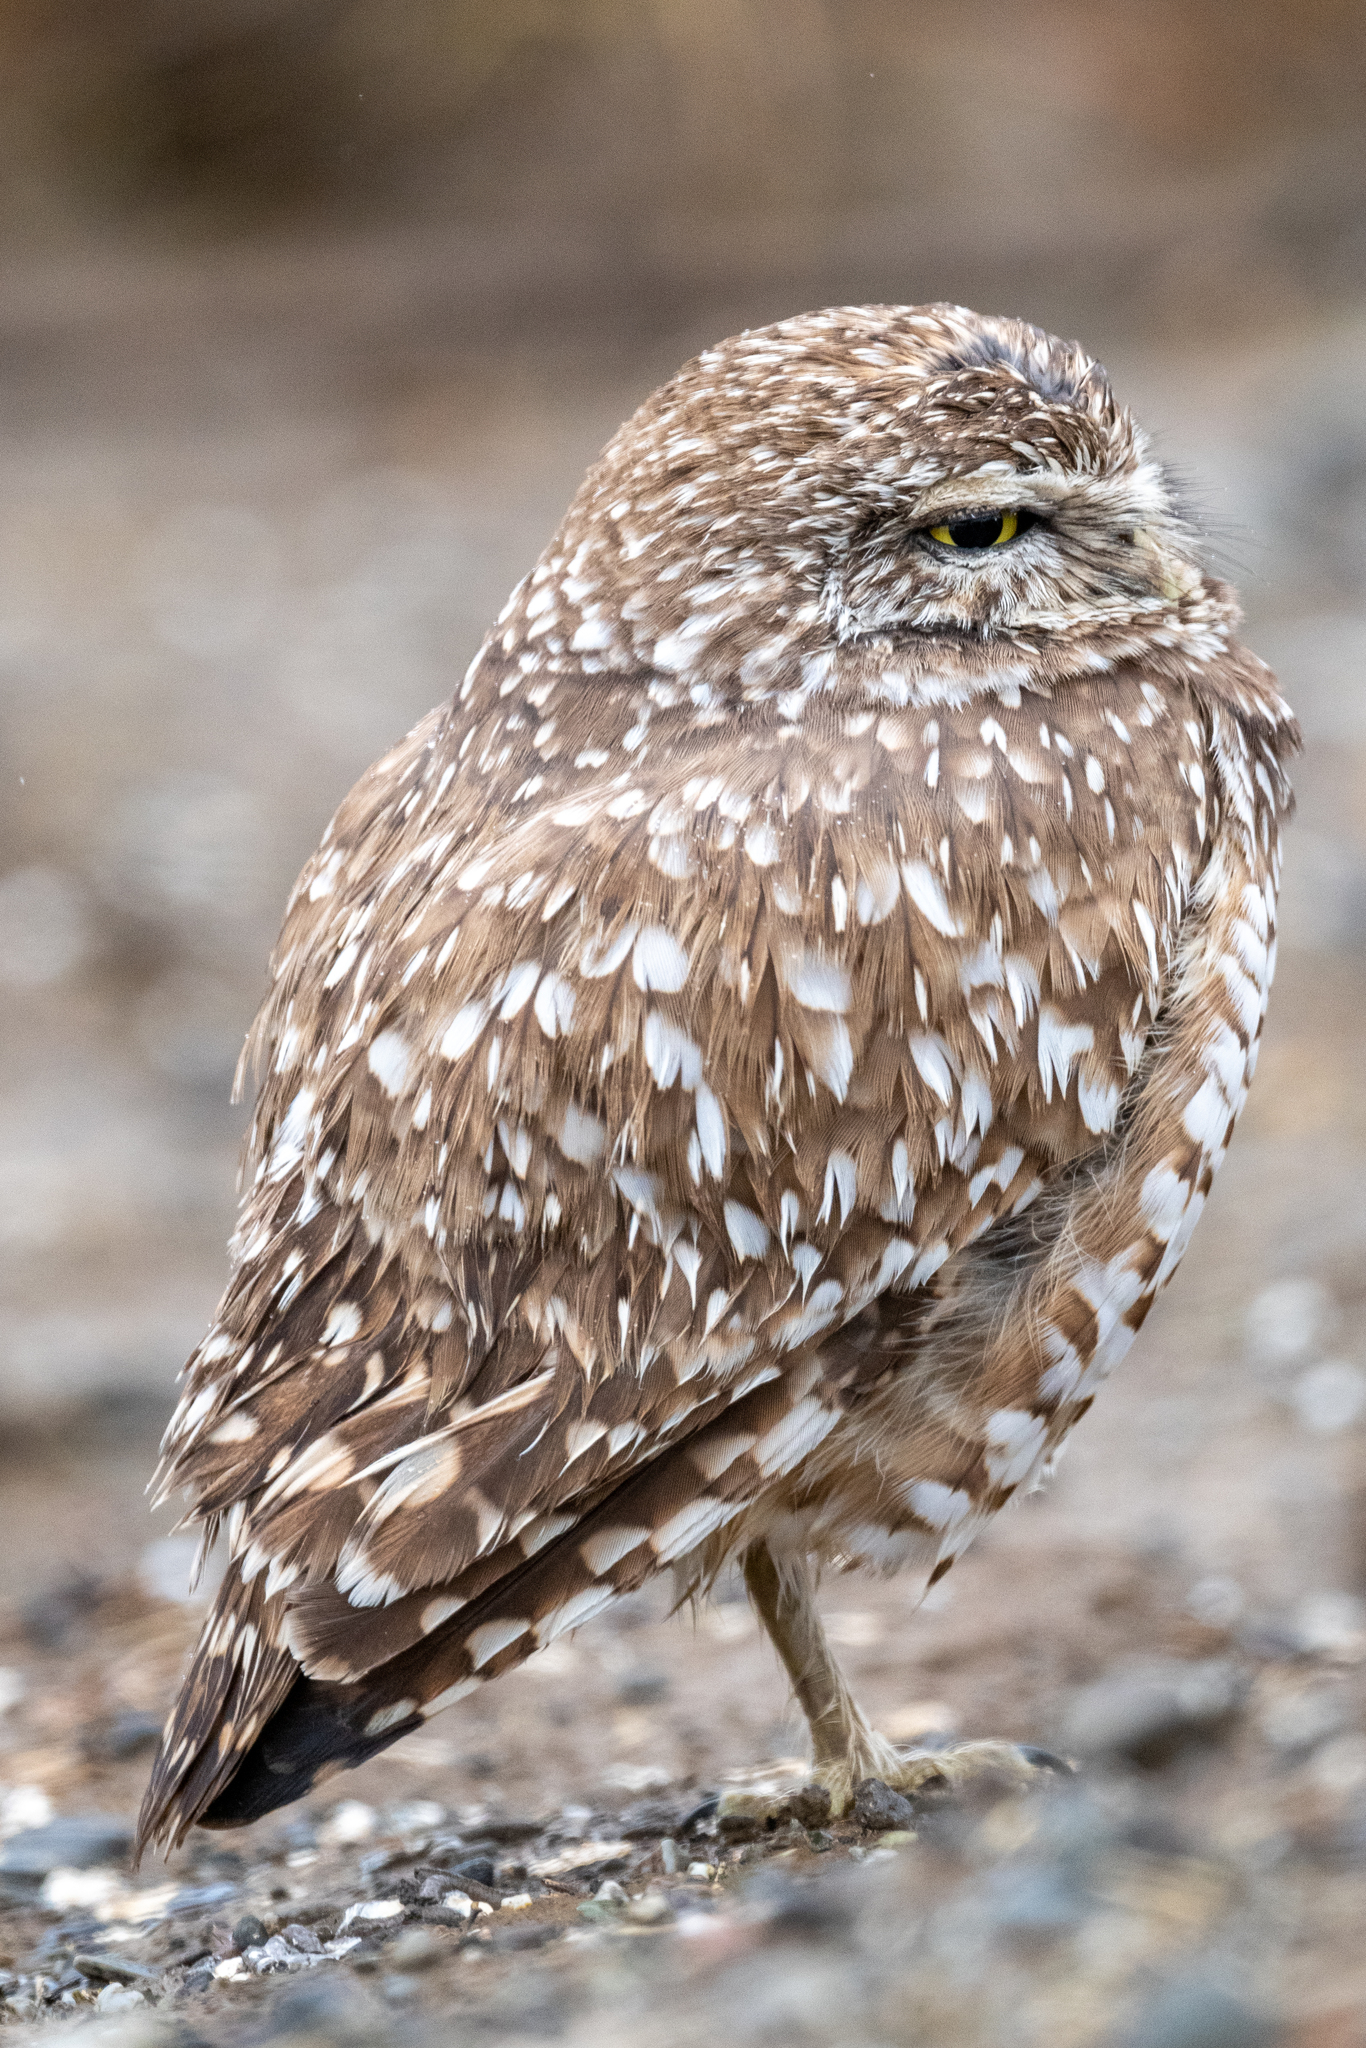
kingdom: Animalia
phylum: Chordata
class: Aves
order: Strigiformes
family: Strigidae
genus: Athene
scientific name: Athene cunicularia
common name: Burrowing owl
